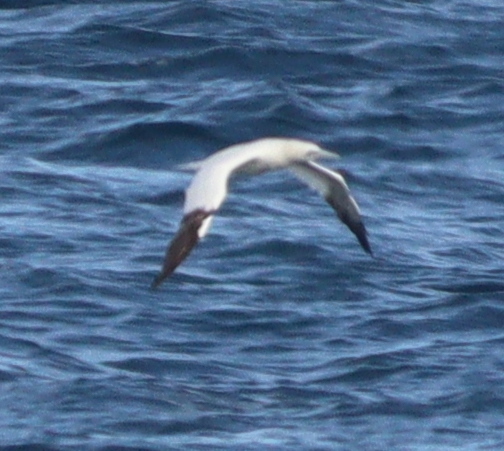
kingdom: Animalia
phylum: Chordata
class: Aves
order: Suliformes
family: Sulidae
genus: Morus
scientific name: Morus bassanus
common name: Northern gannet
